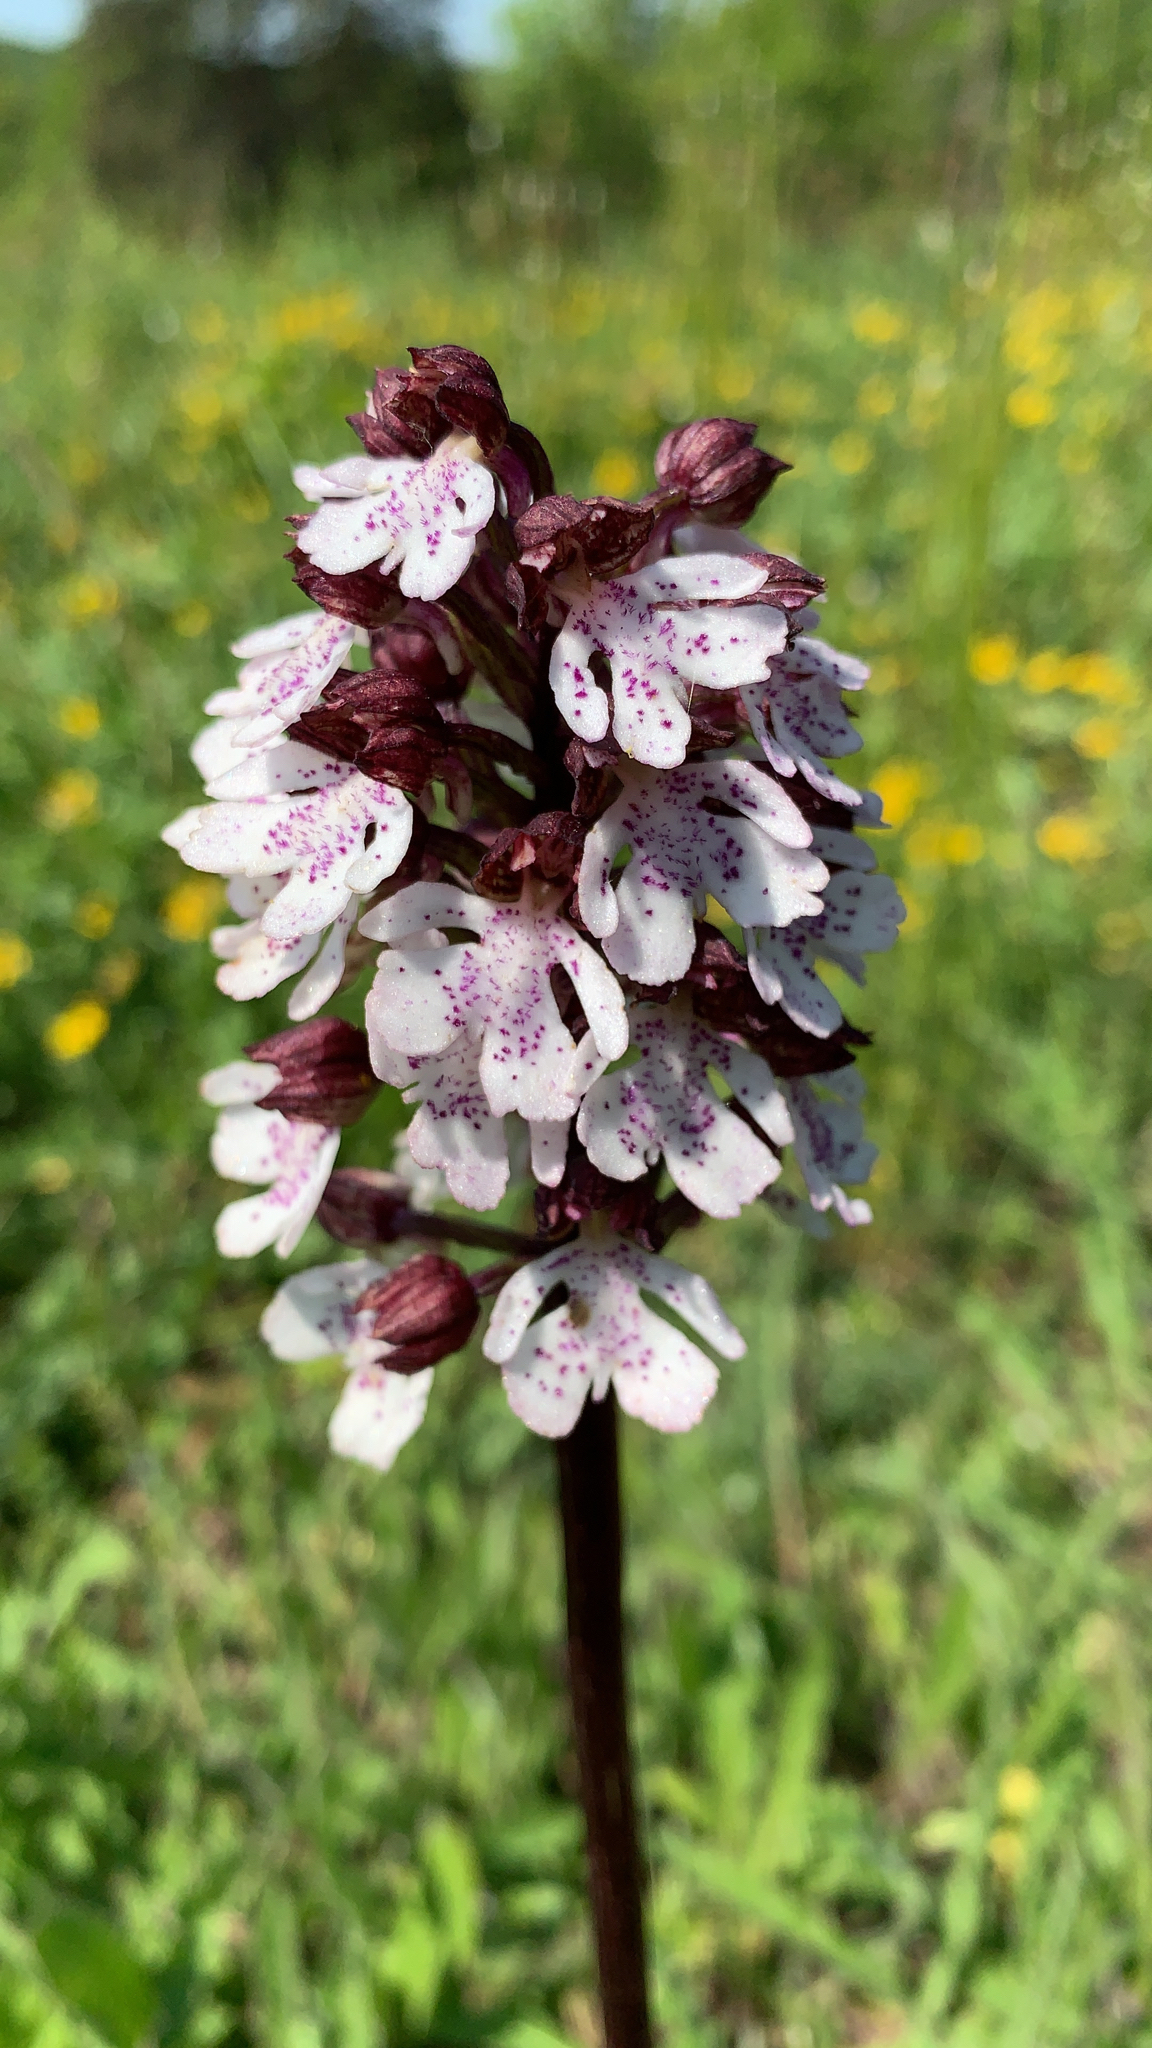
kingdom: Plantae
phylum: Tracheophyta
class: Liliopsida
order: Asparagales
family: Orchidaceae
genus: Orchis
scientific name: Orchis purpurea
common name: Lady orchid
